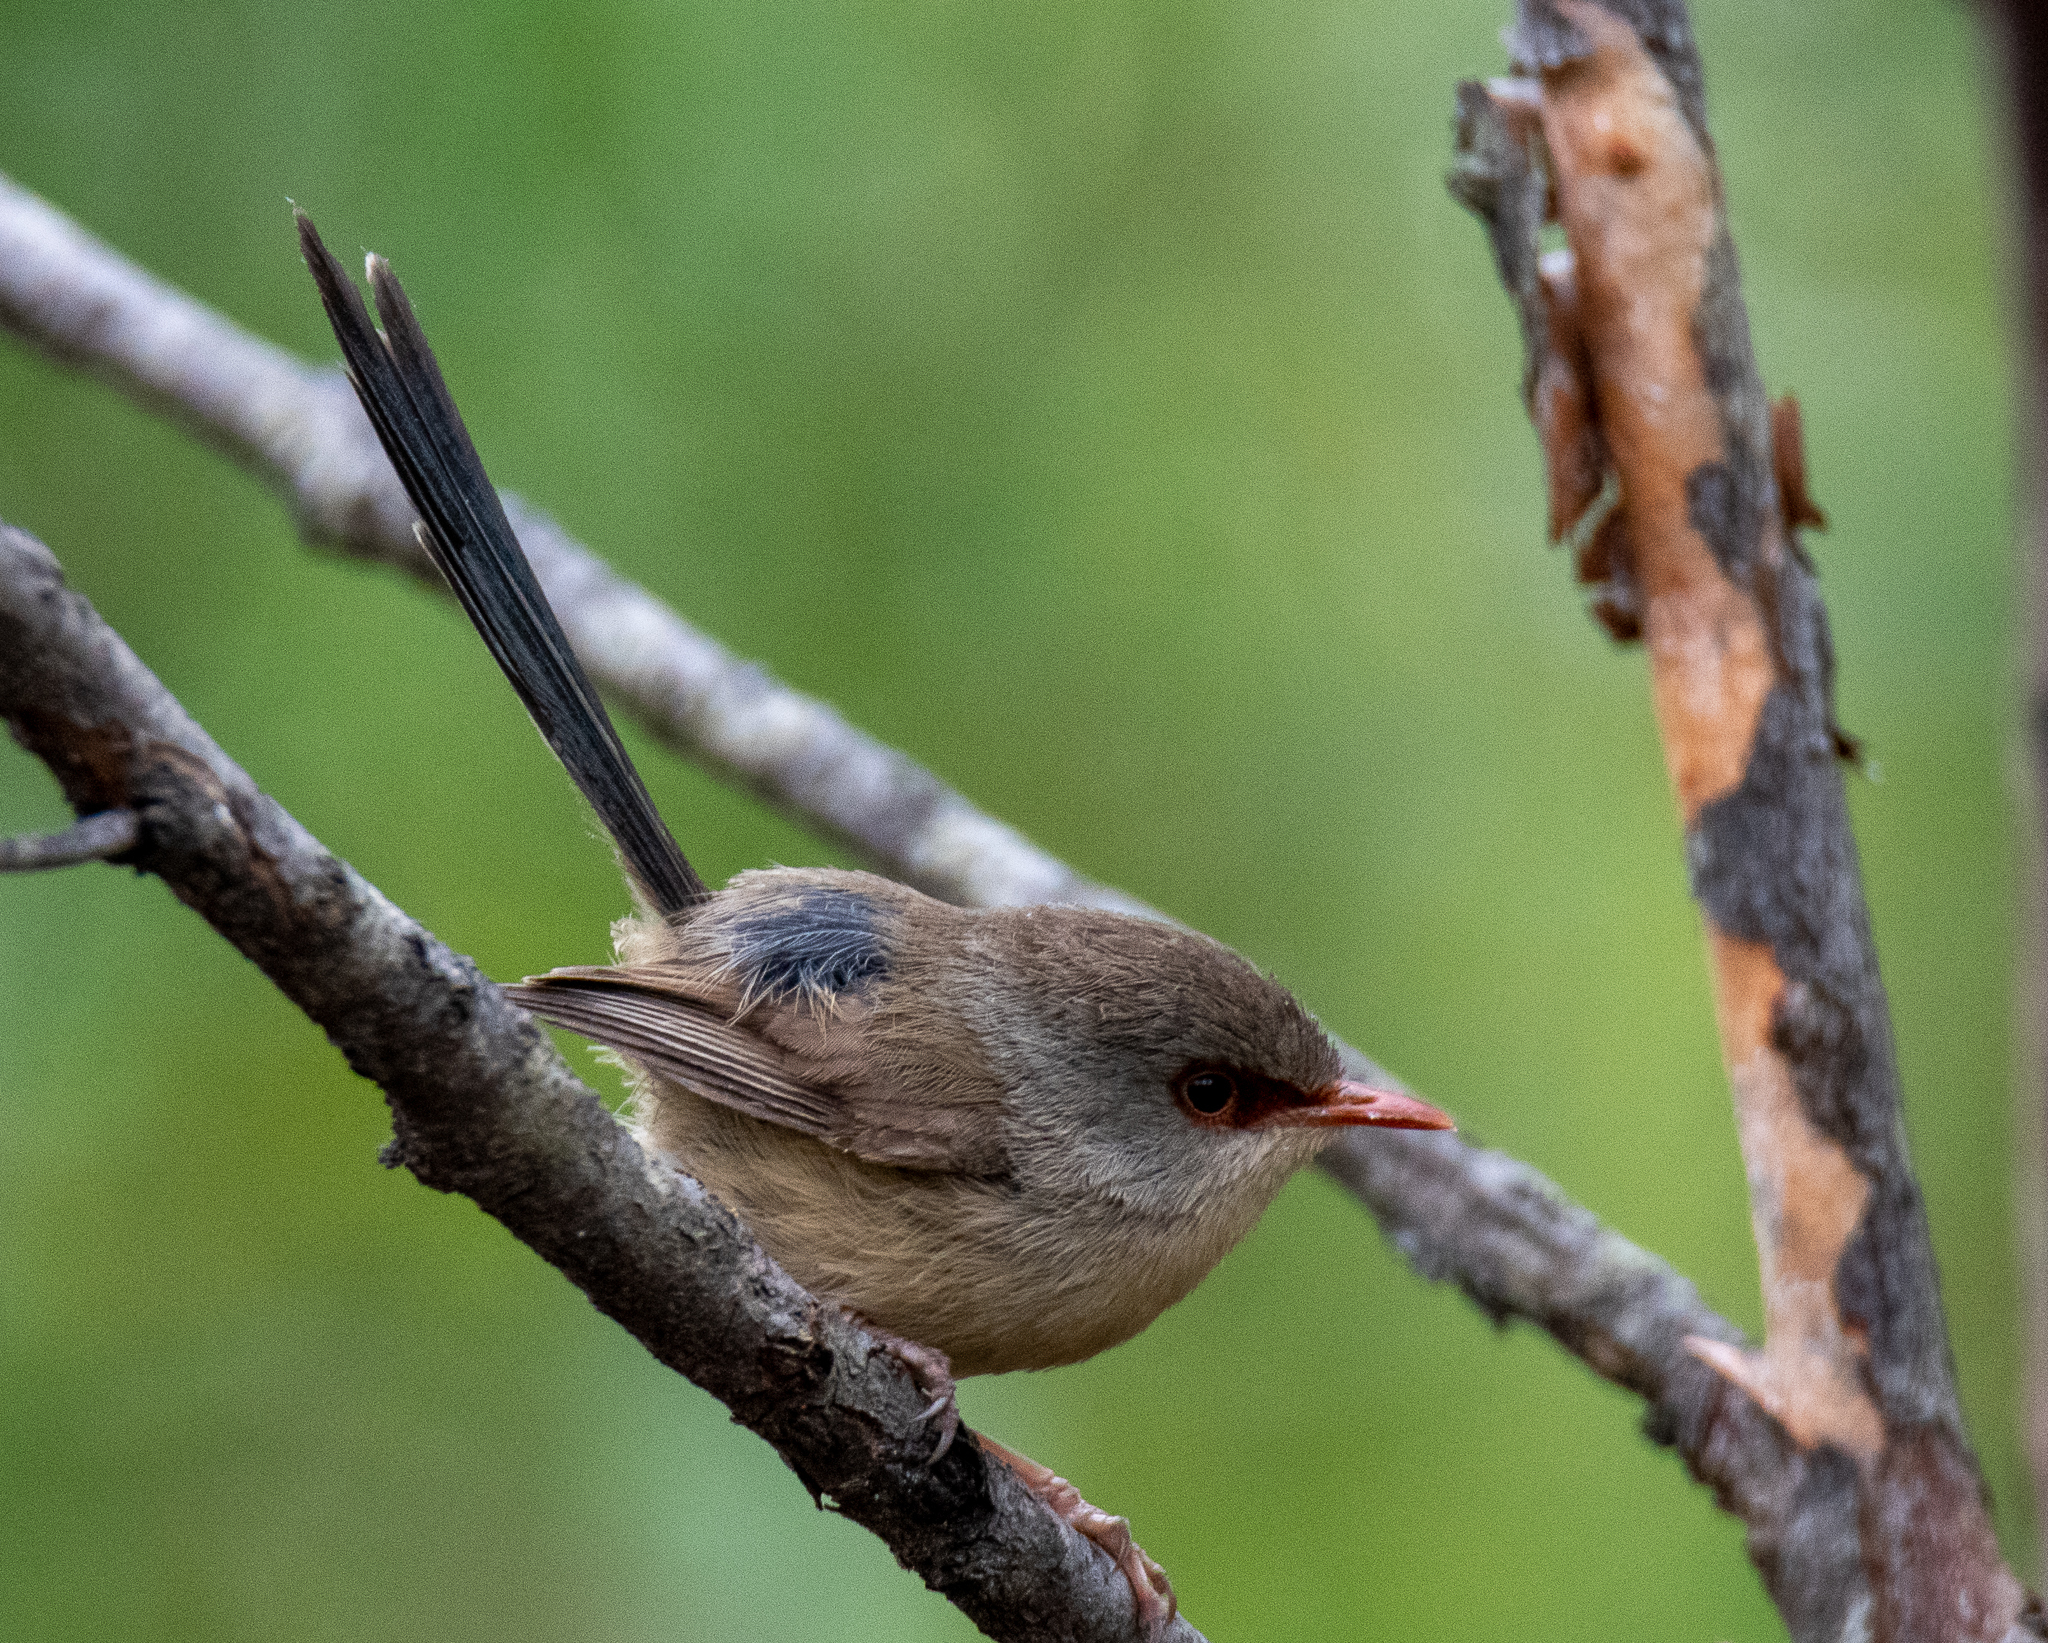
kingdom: Animalia
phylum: Chordata
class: Aves
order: Passeriformes
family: Maluridae
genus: Malurus
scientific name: Malurus lamberti
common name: Variegated fairywren
